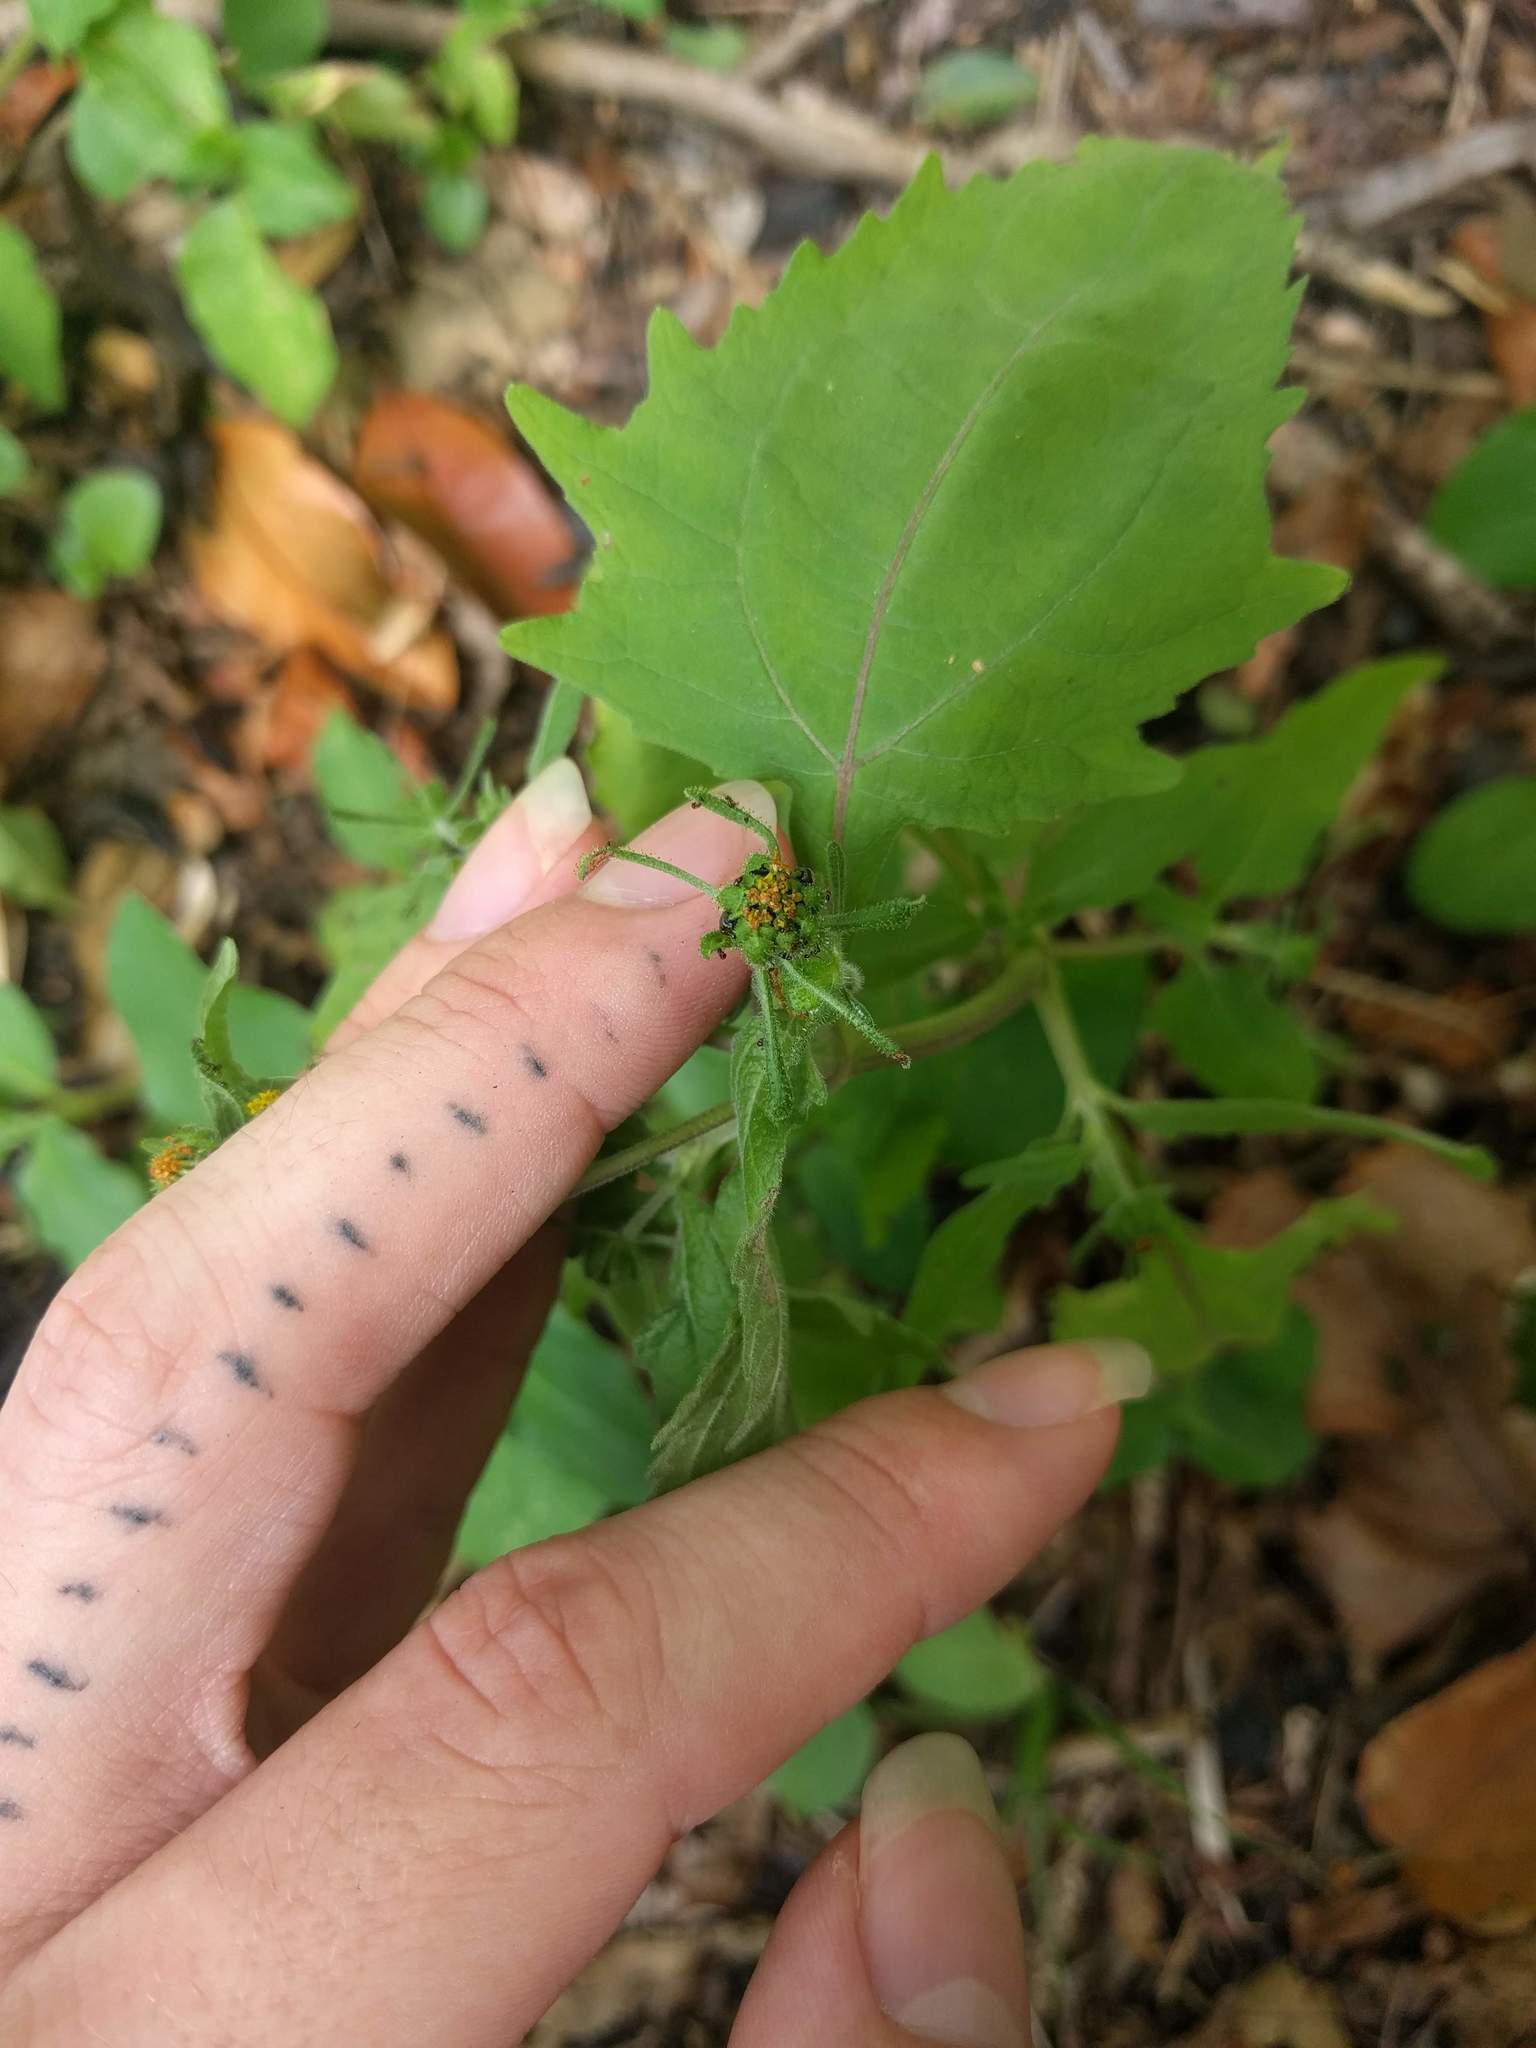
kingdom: Plantae
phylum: Tracheophyta
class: Magnoliopsida
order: Asterales
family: Asteraceae
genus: Sigesbeckia
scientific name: Sigesbeckia orientalis
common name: Eastern st paul's-wort
